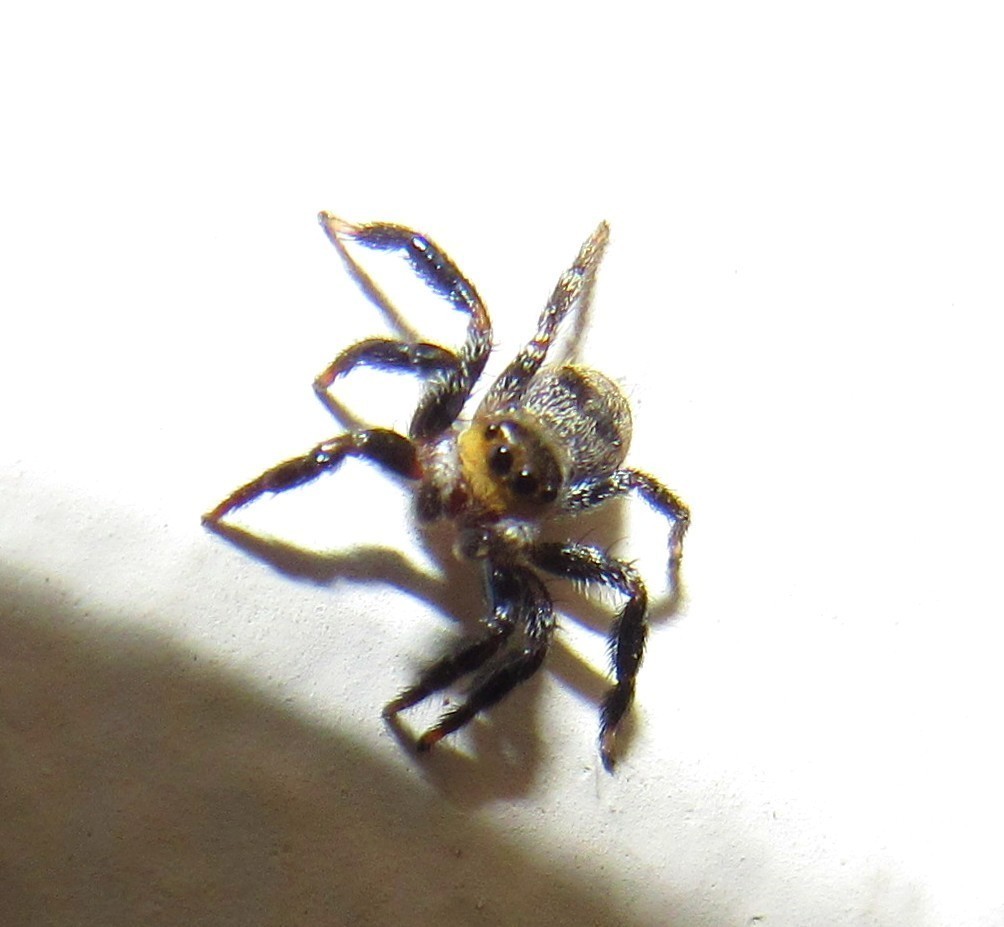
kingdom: Animalia
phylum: Arthropoda
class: Arachnida
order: Araneae
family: Salticidae
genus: Corythalia
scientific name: Corythalia conferta
